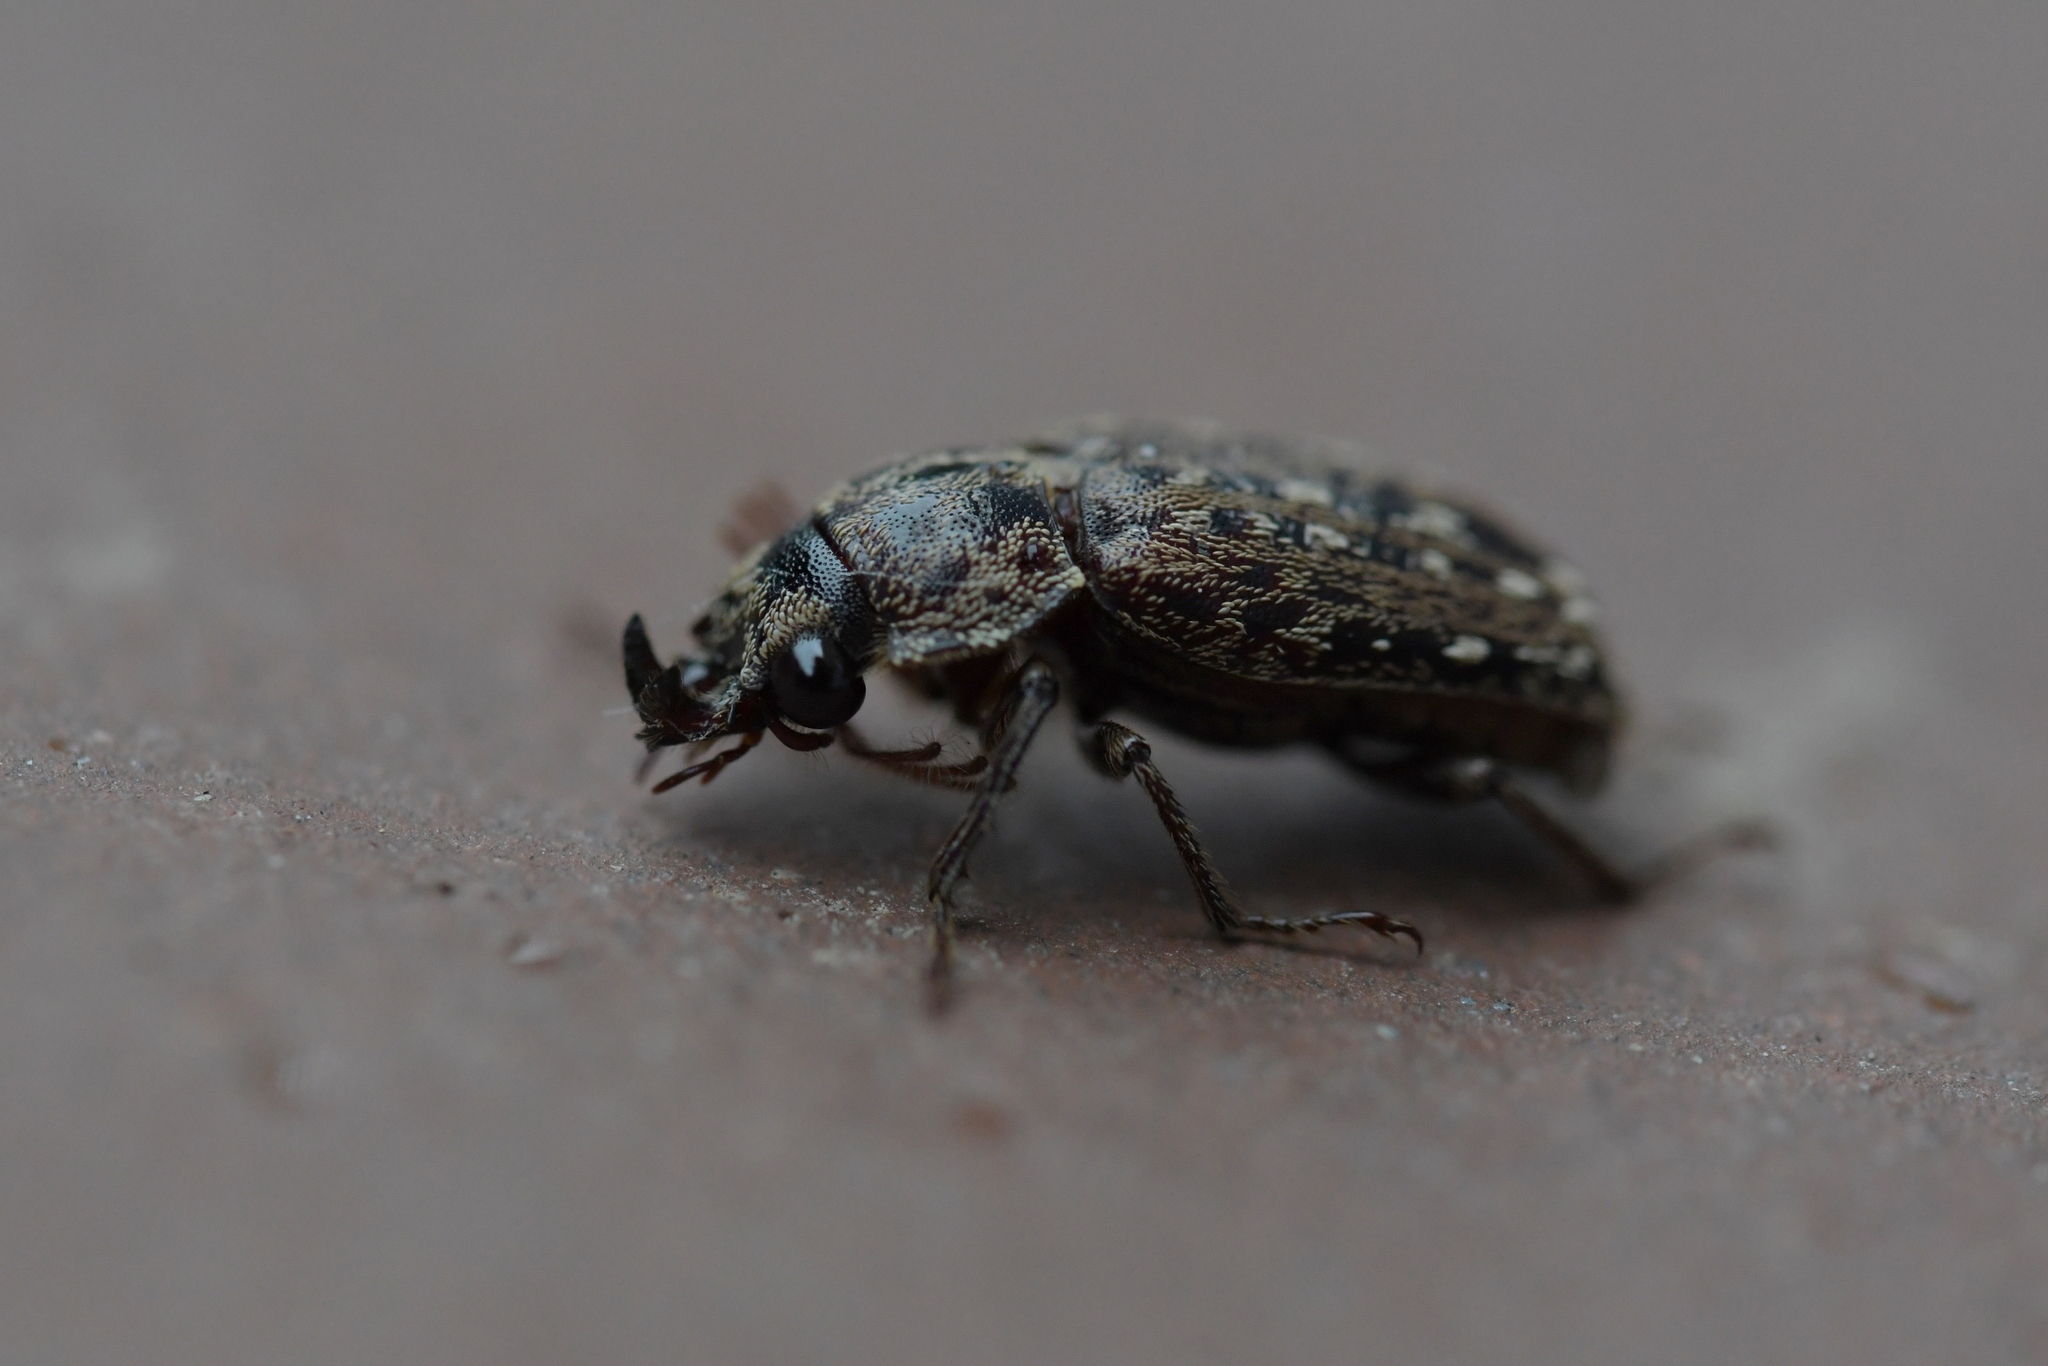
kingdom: Animalia
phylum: Arthropoda
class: Insecta
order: Coleoptera
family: Lucanidae
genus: Mitophyllus
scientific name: Mitophyllus irroratus
